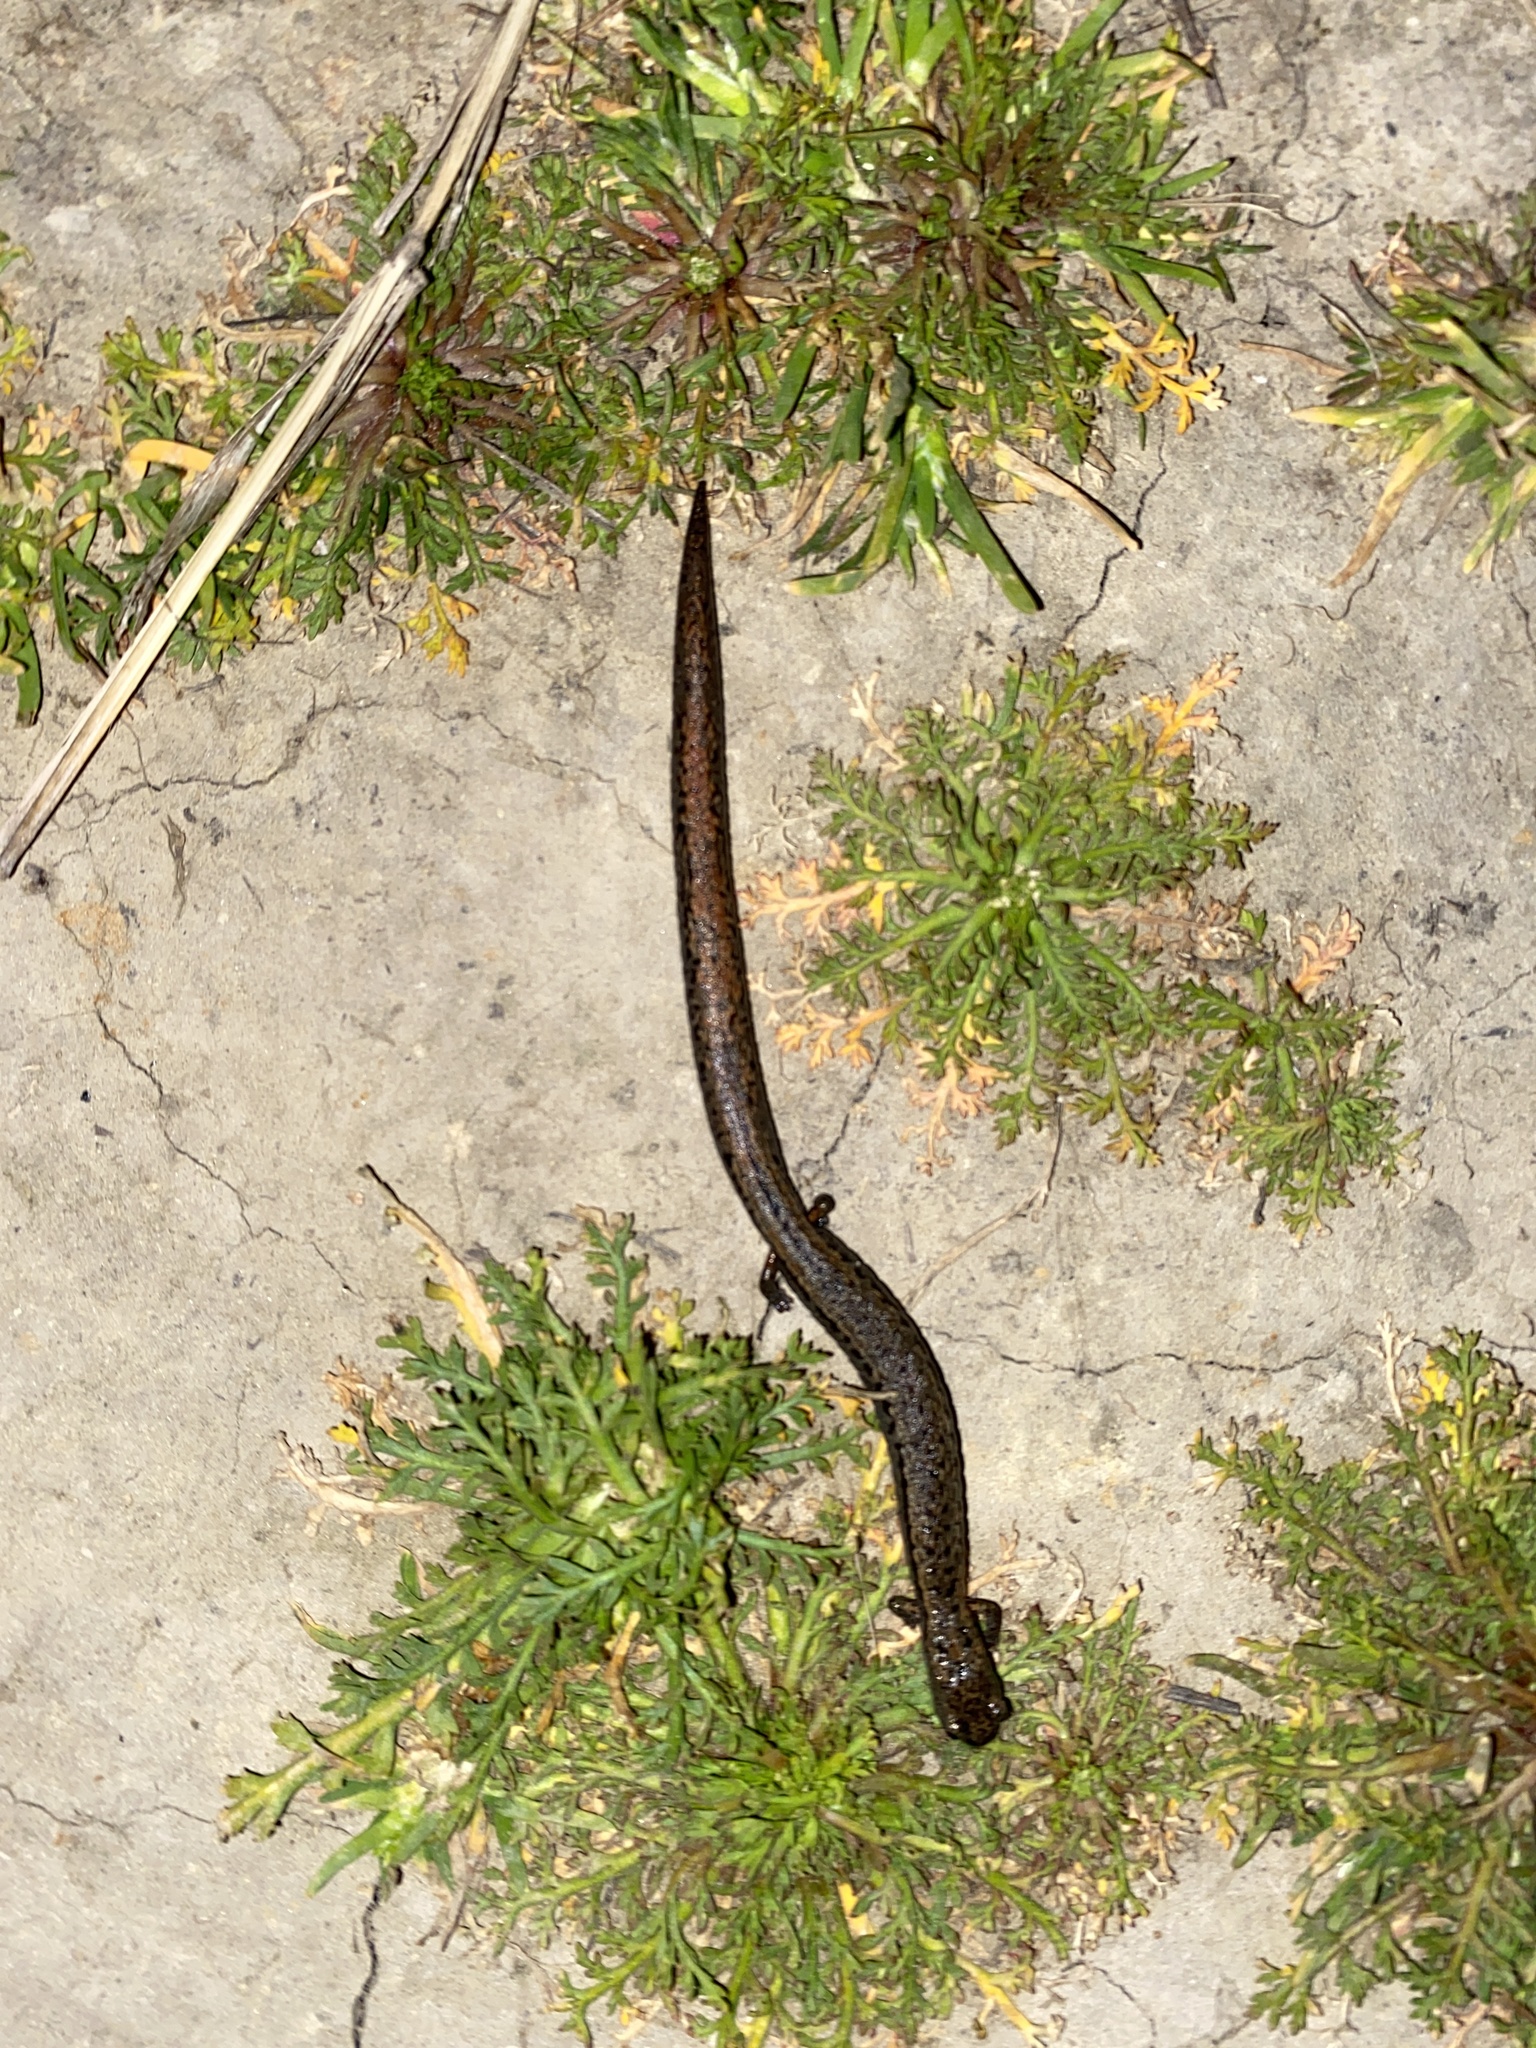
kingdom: Animalia
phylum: Chordata
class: Amphibia
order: Caudata
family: Plethodontidae
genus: Batrachoseps
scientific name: Batrachoseps attenuatus
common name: California slender salamander
